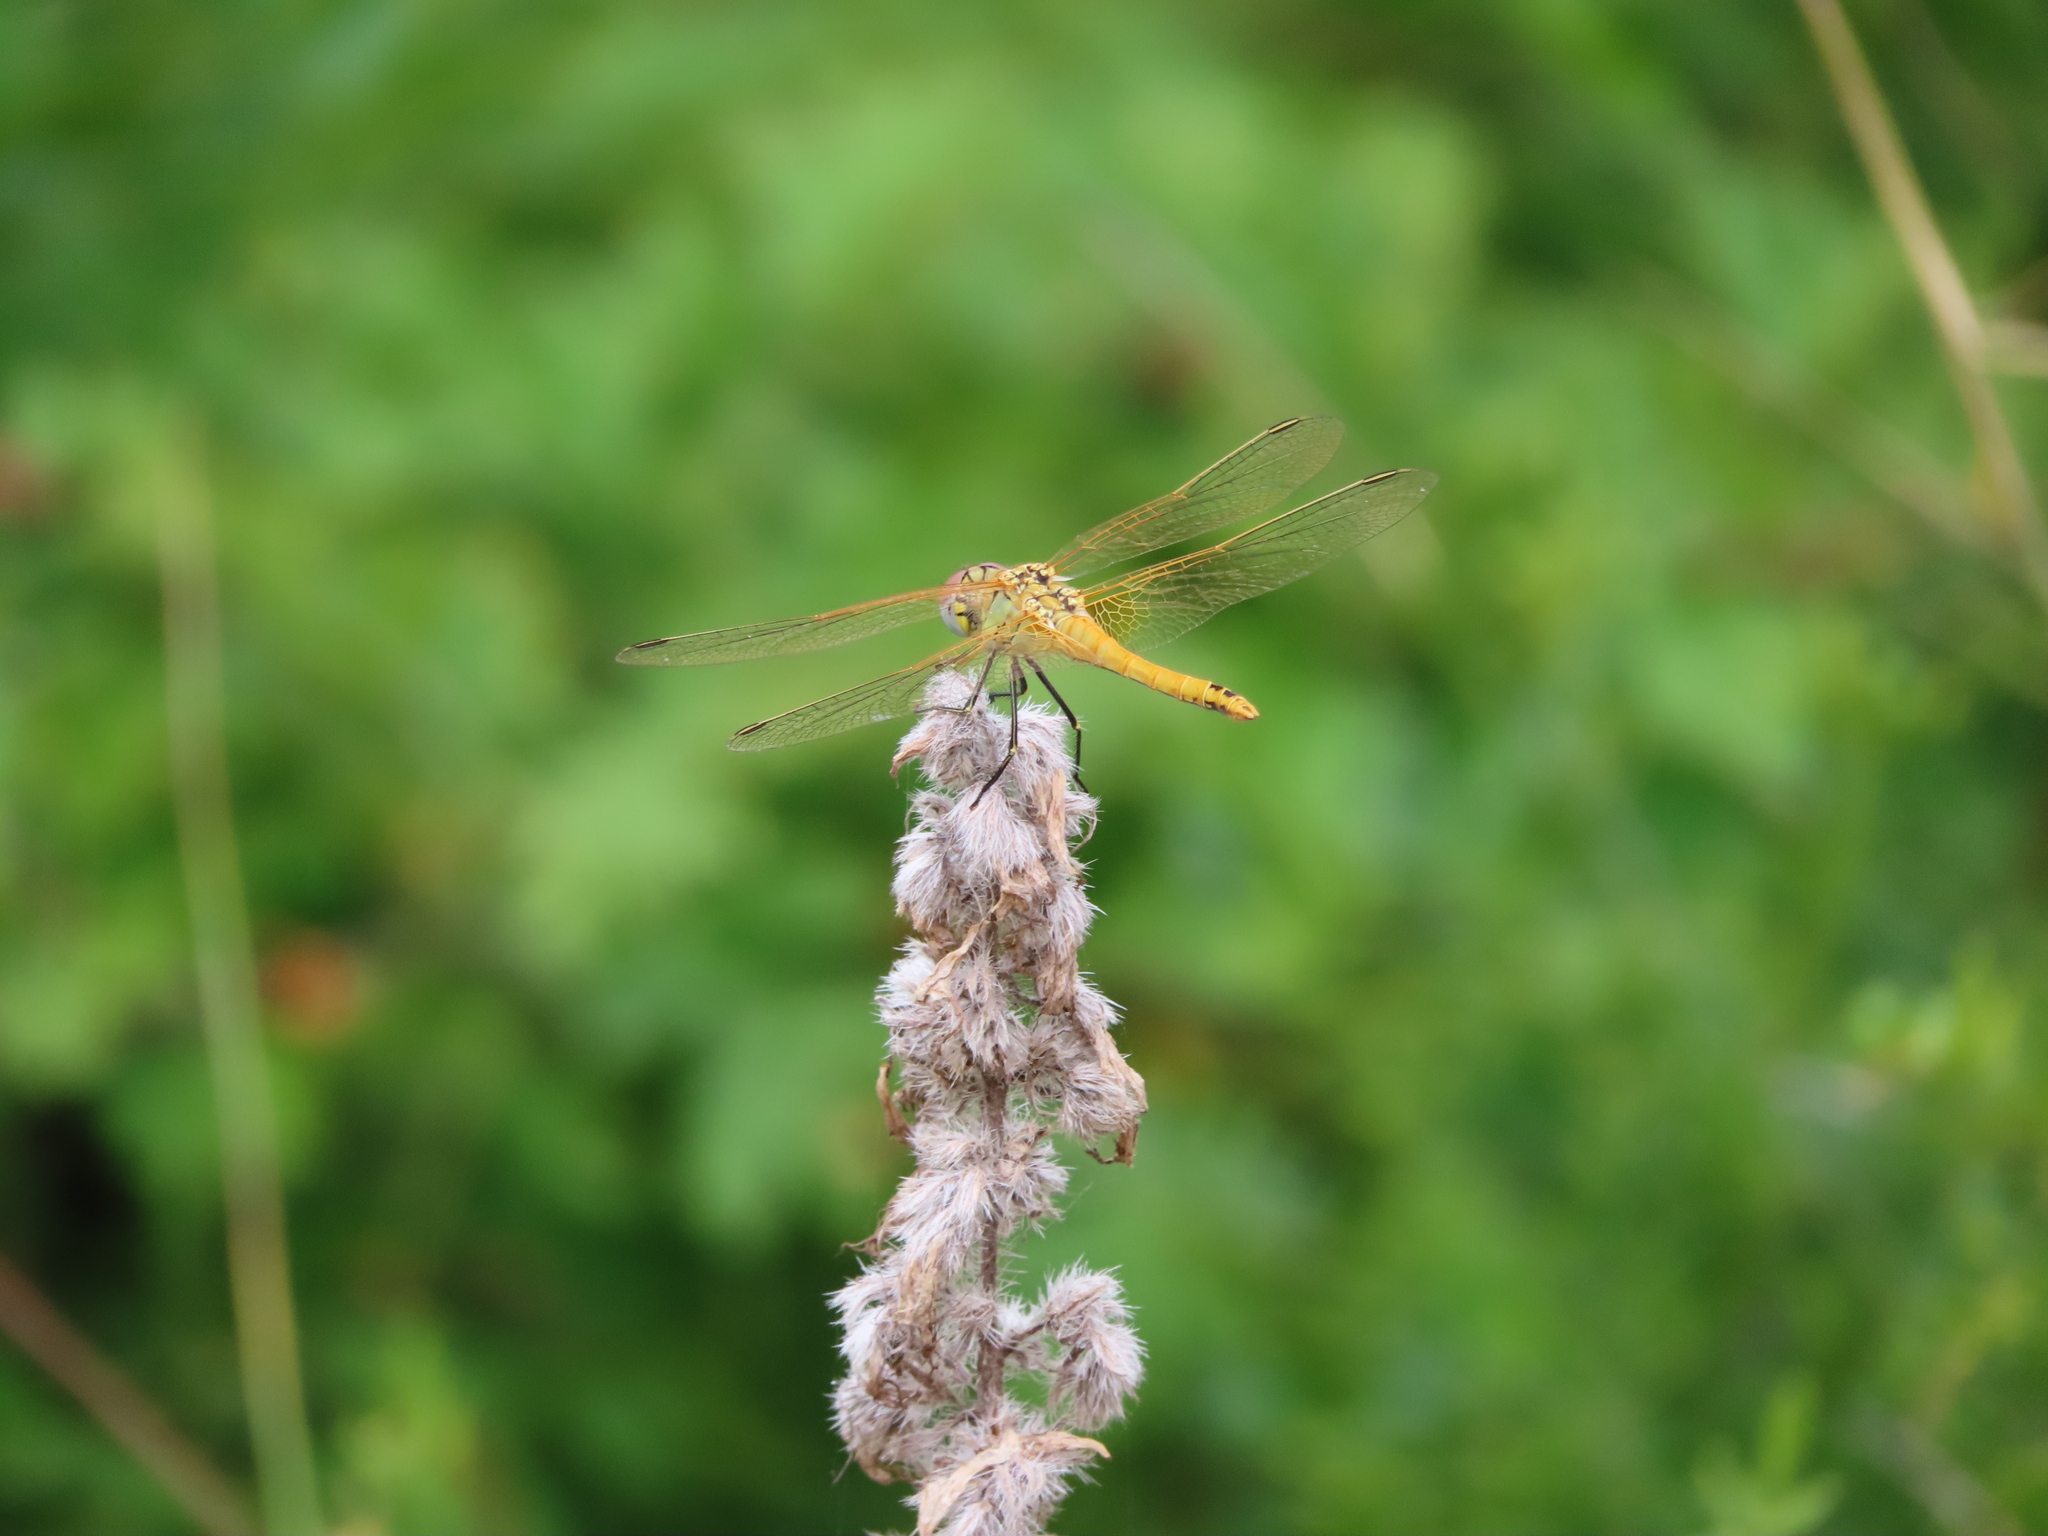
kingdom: Animalia
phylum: Arthropoda
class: Insecta
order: Odonata
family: Libellulidae
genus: Sympetrum
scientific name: Sympetrum fonscolombii
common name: Red-veined darter
